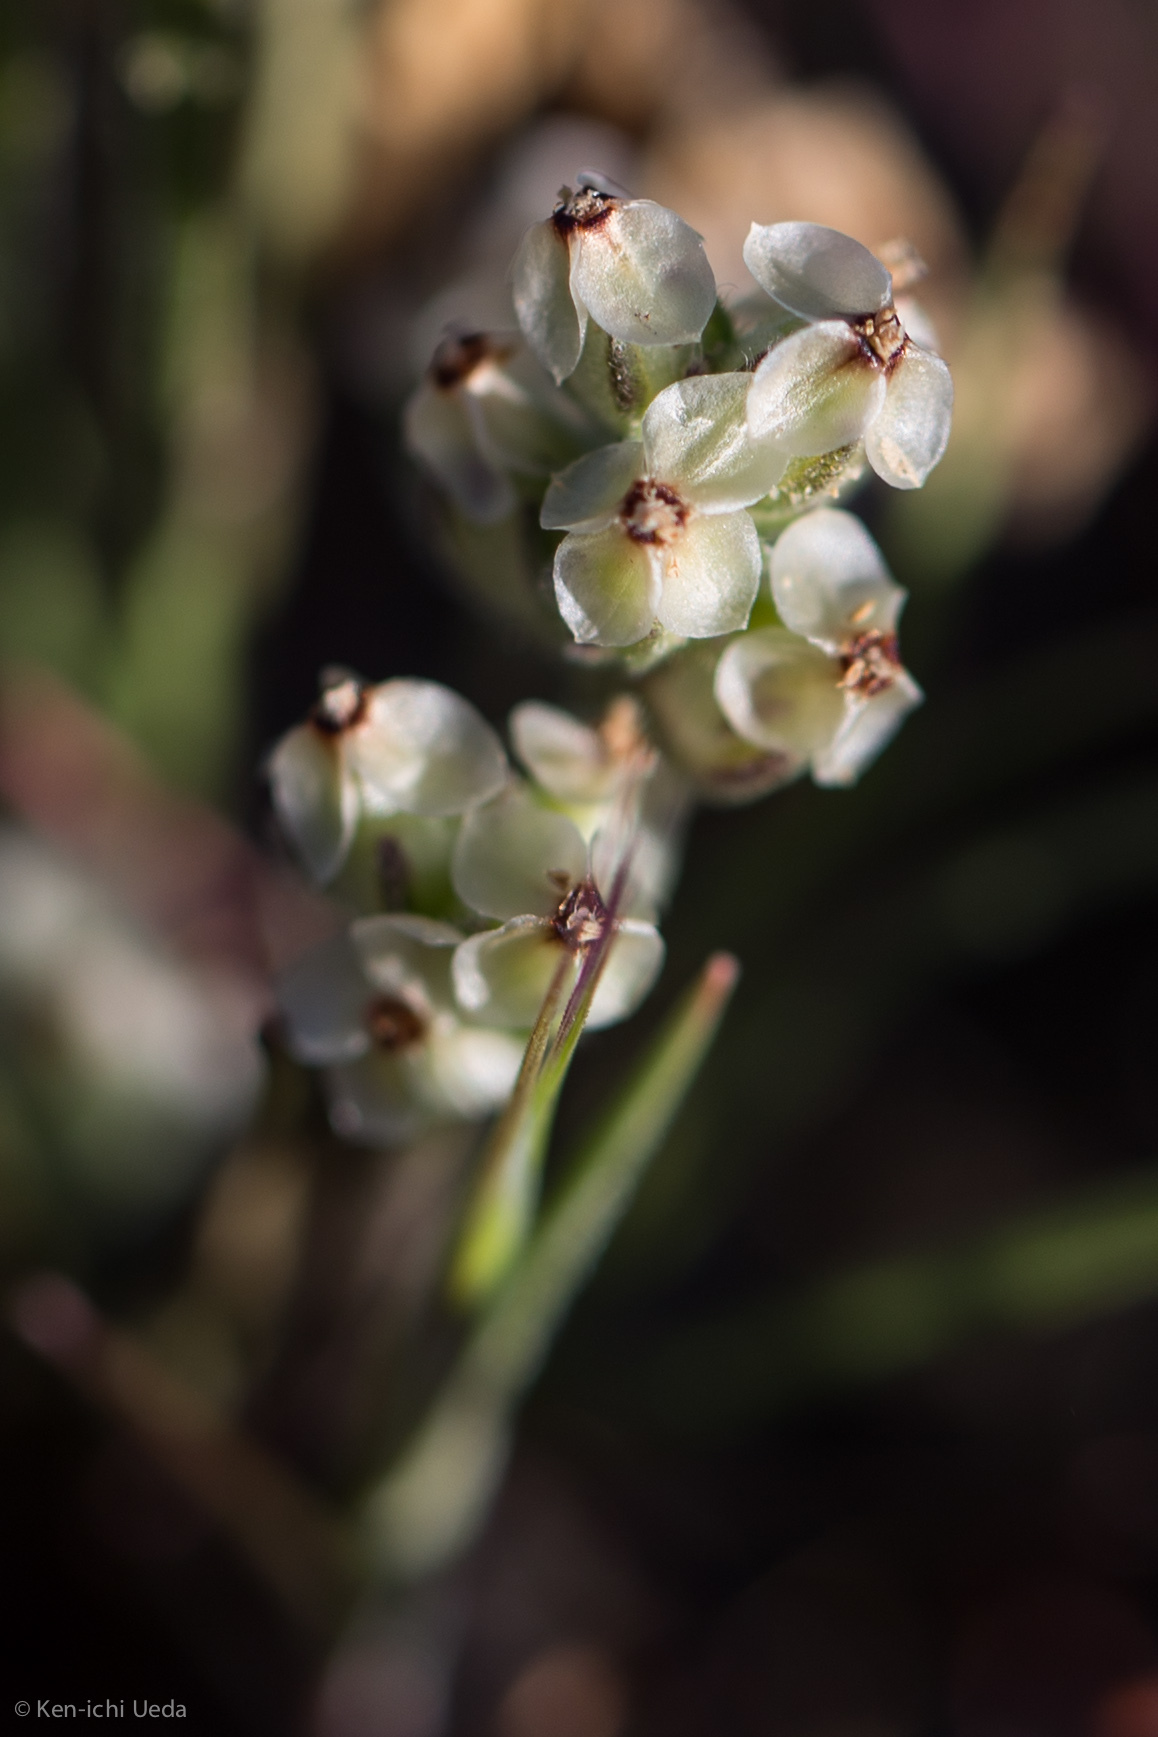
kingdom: Plantae
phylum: Tracheophyta
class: Magnoliopsida
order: Lamiales
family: Plantaginaceae
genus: Plantago
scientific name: Plantago erecta
